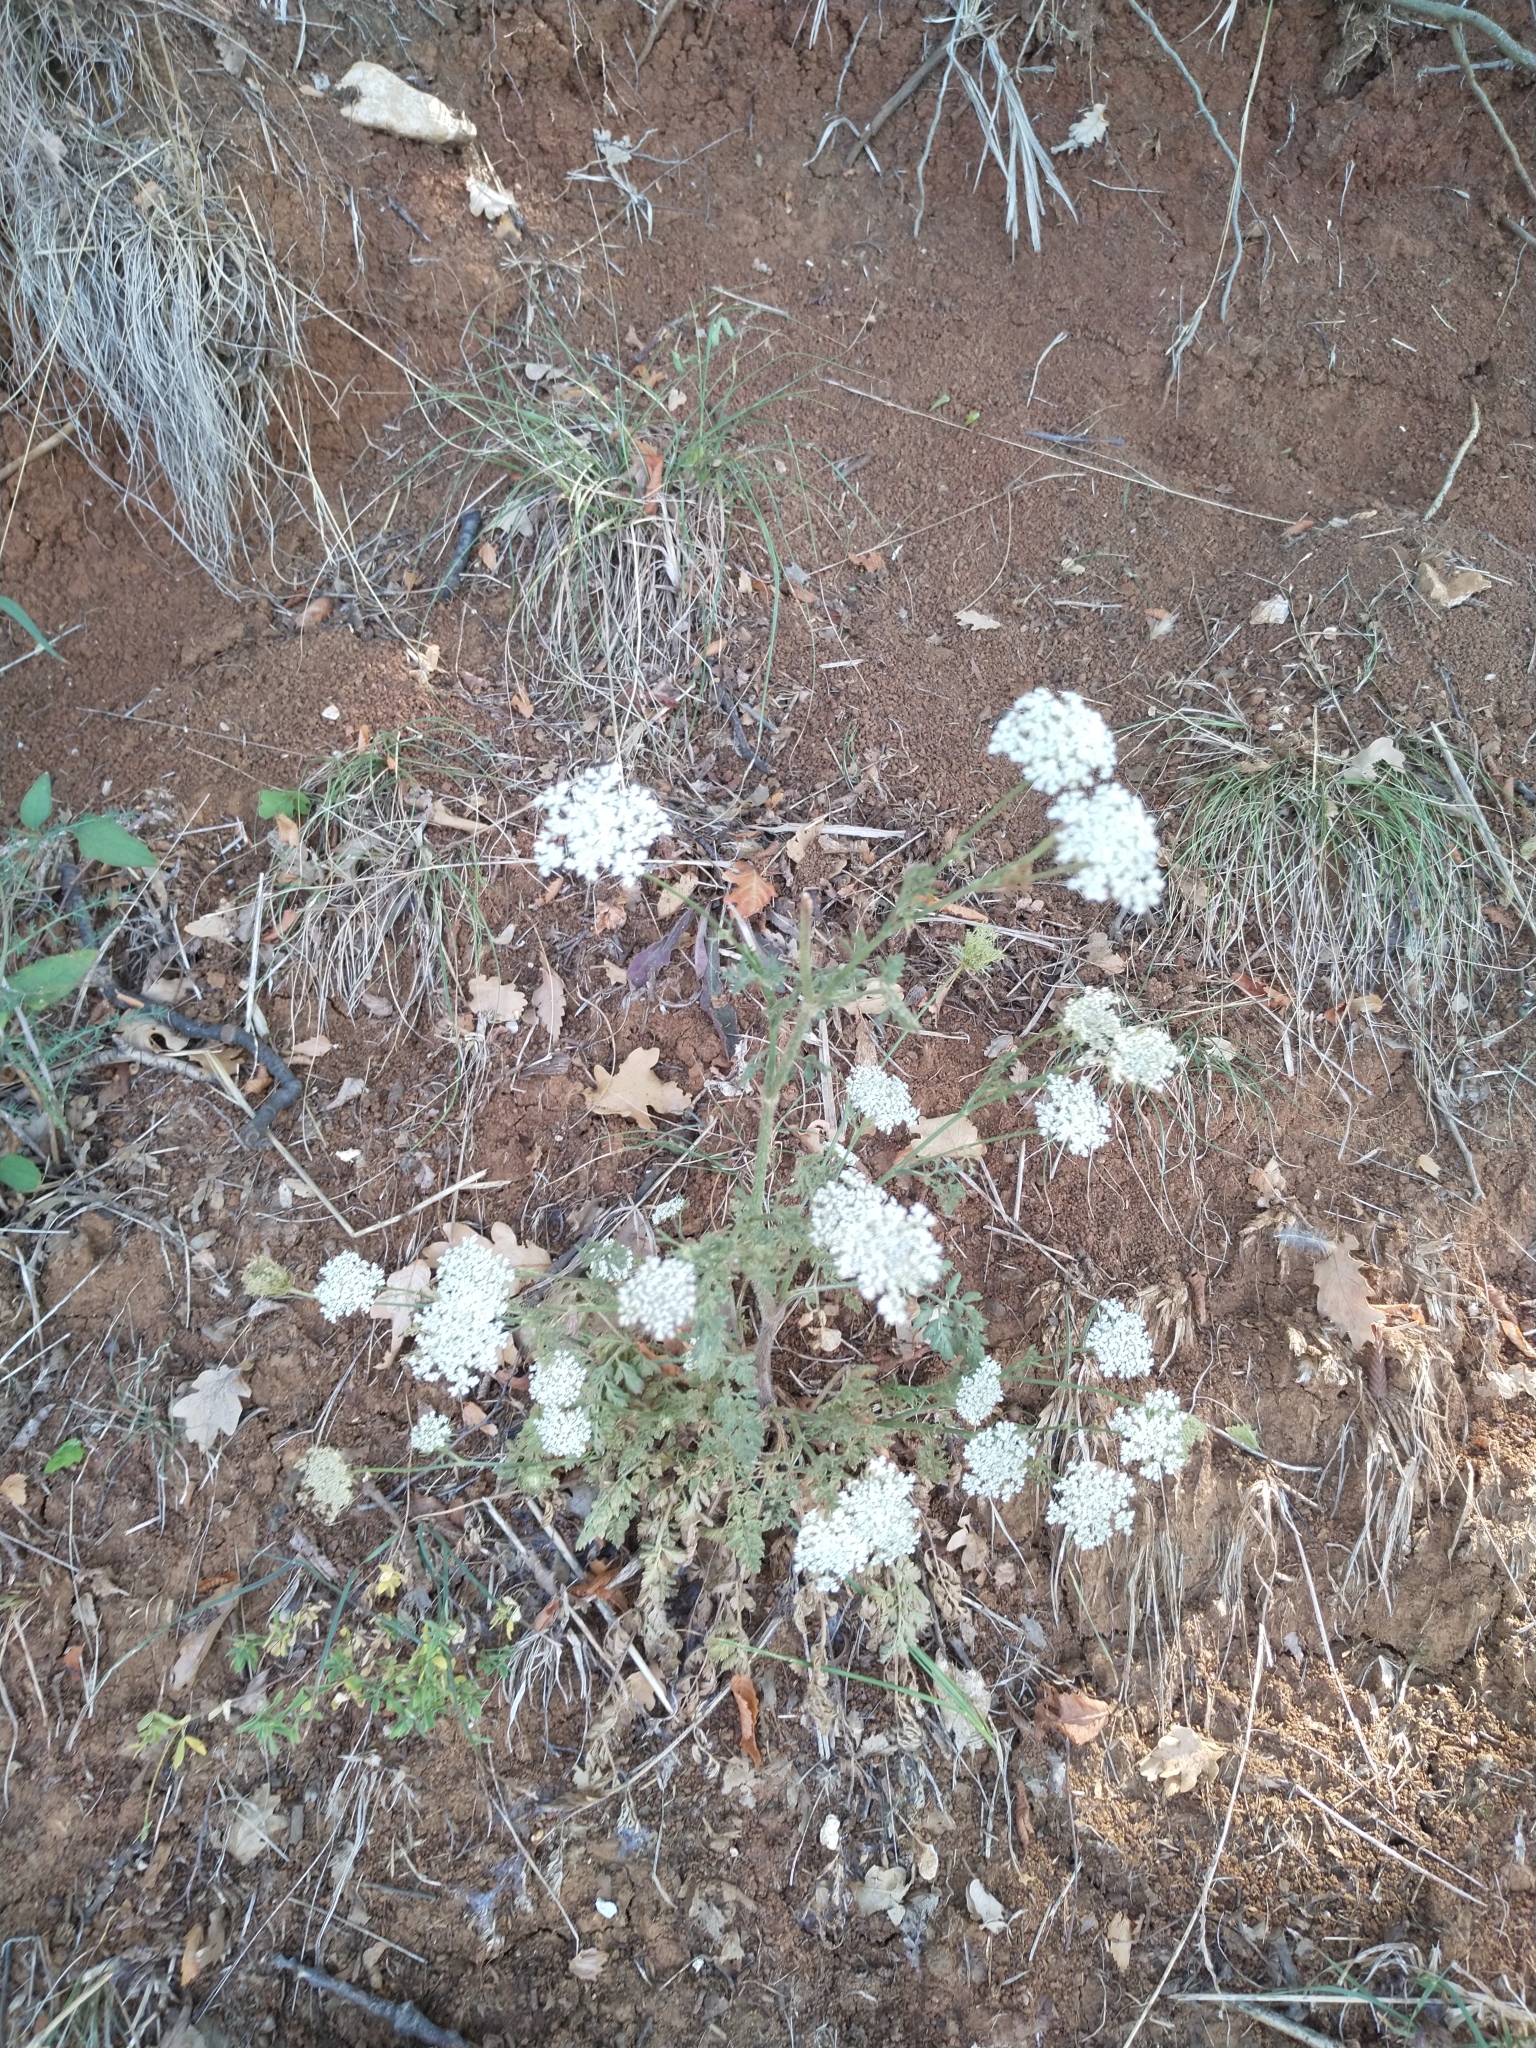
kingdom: Plantae
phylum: Tracheophyta
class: Magnoliopsida
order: Asterales
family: Asteraceae
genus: Achillea
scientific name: Achillea millefolium
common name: Yarrow
